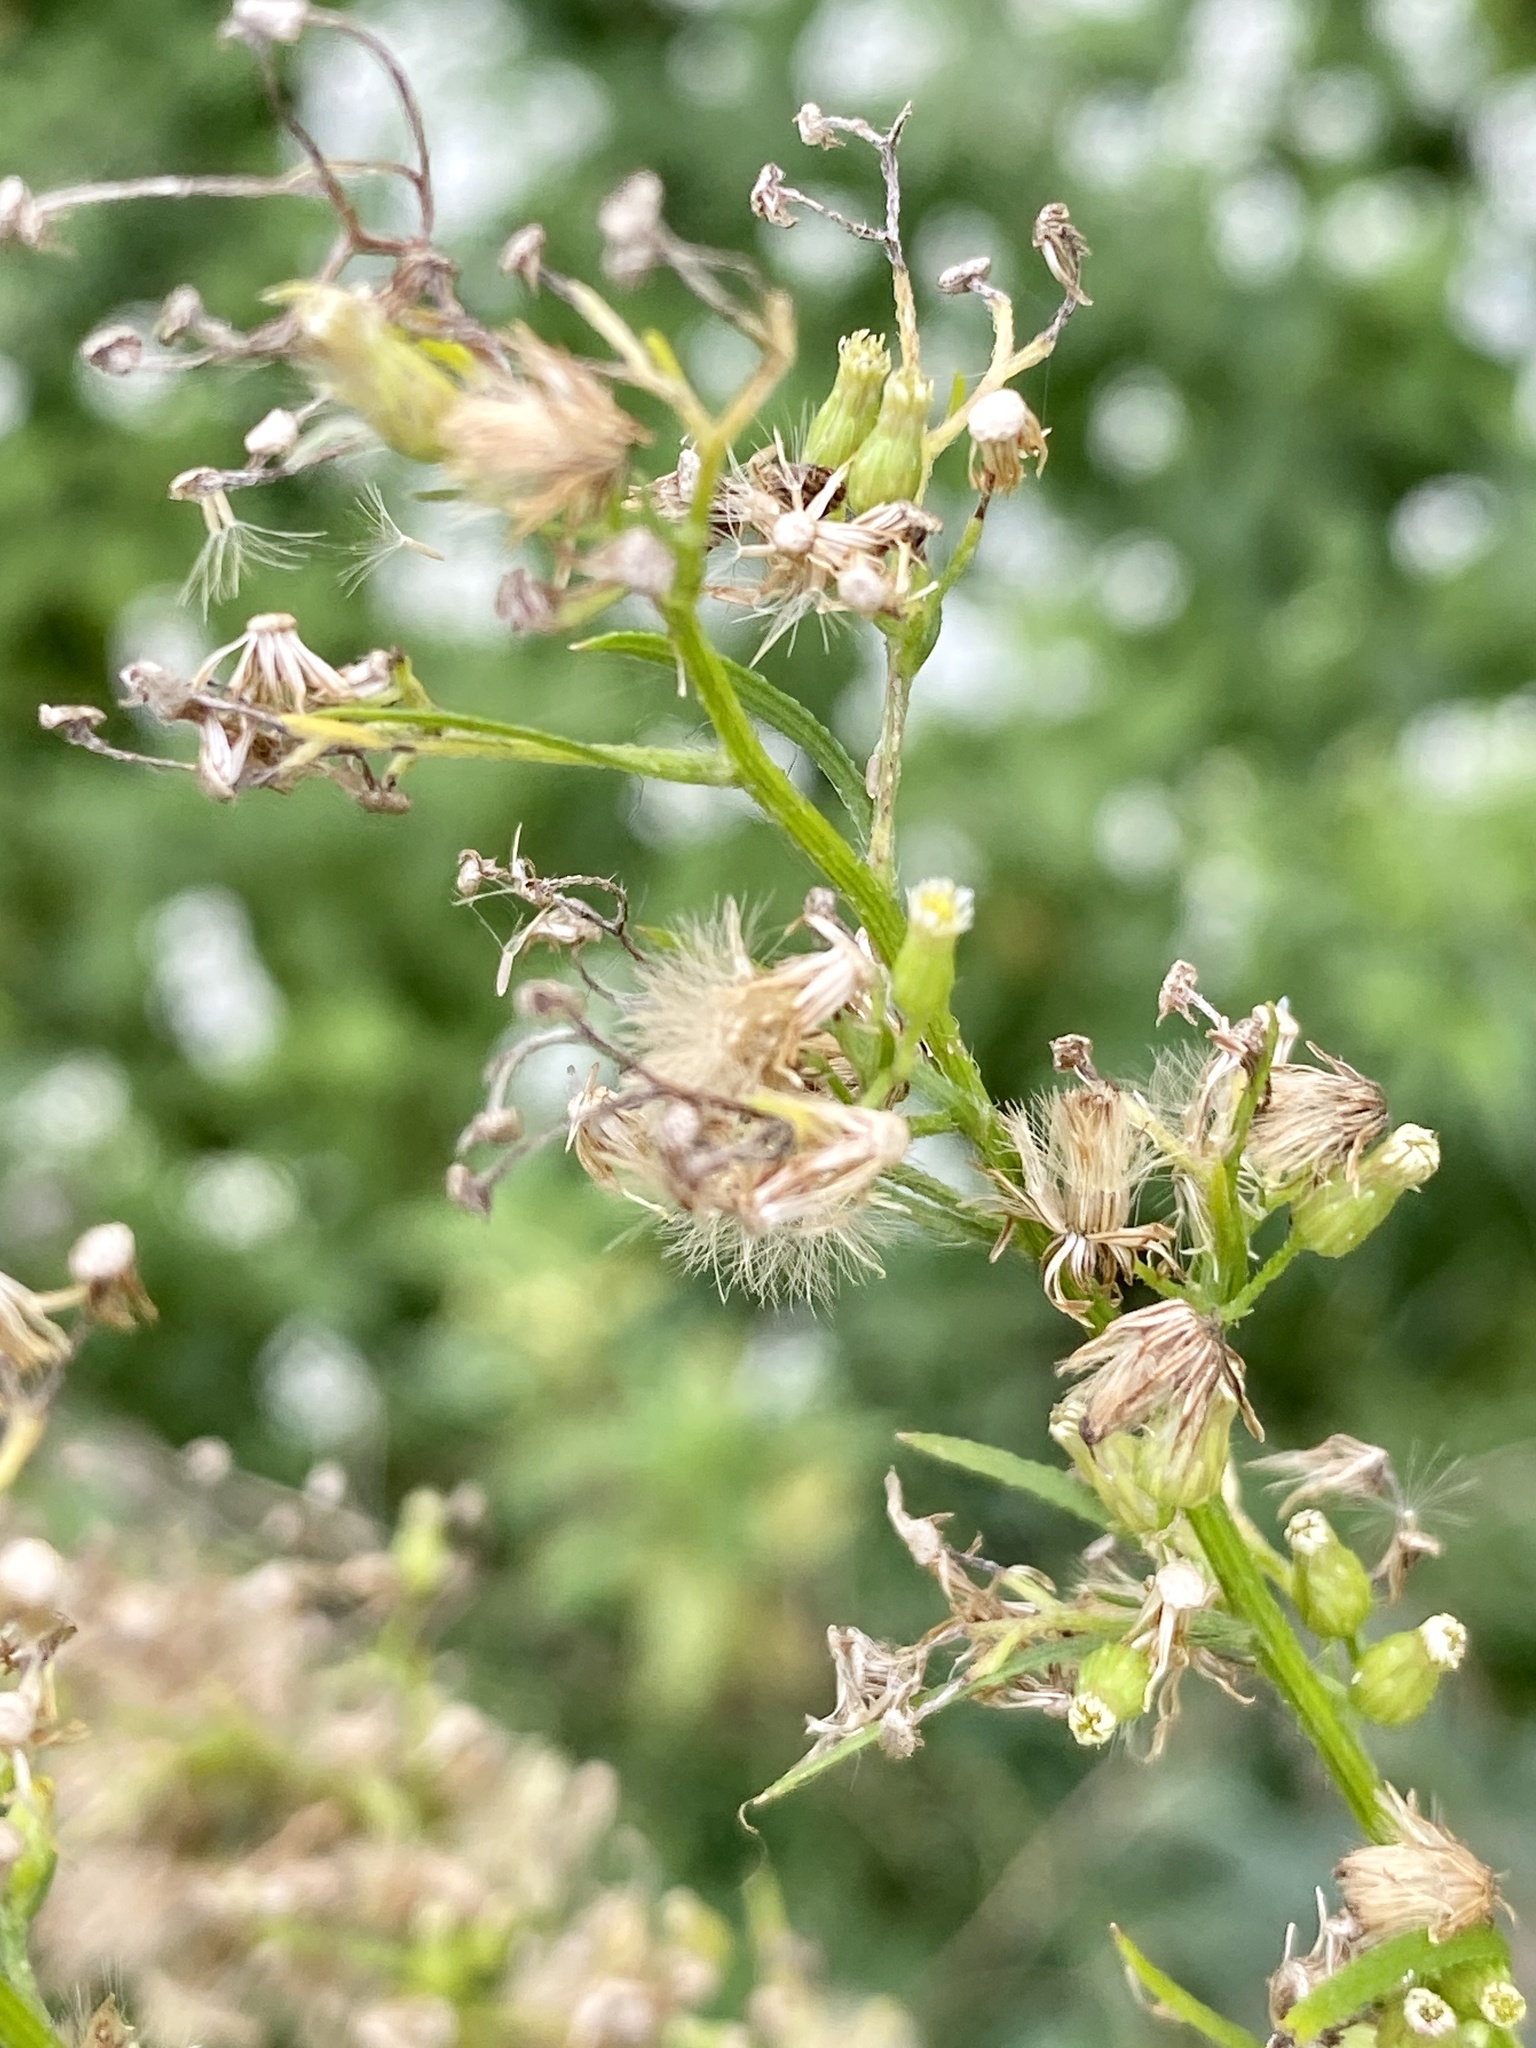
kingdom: Plantae
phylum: Tracheophyta
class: Magnoliopsida
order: Asterales
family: Asteraceae
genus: Erigeron
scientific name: Erigeron canadensis
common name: Canadian fleabane
